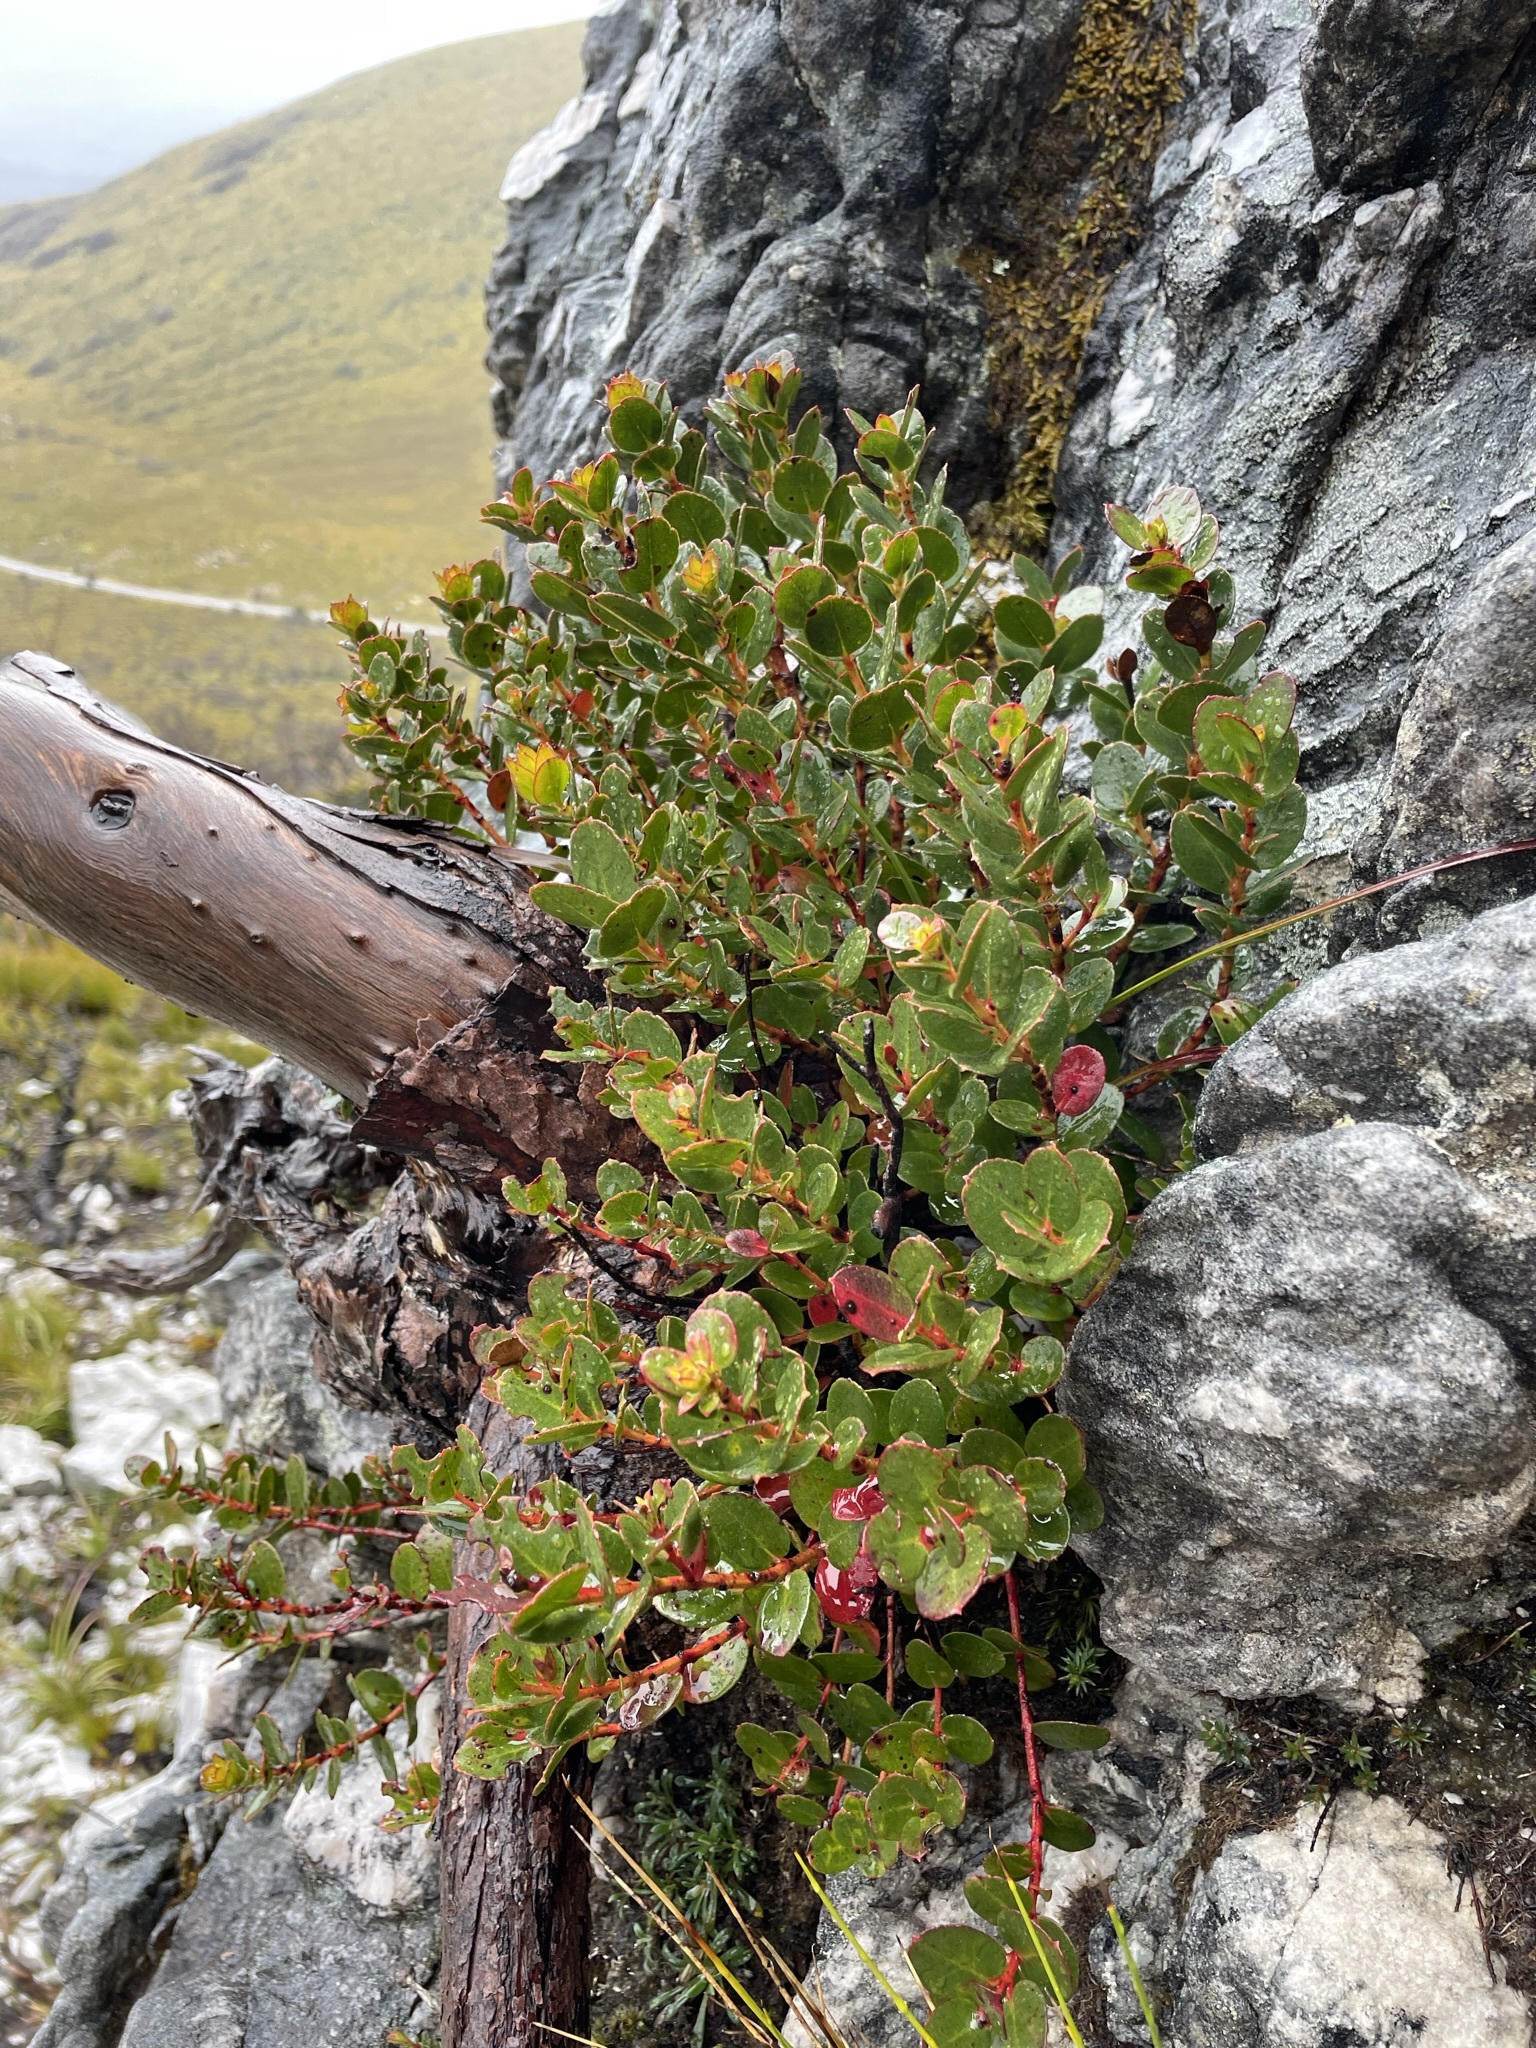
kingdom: Plantae
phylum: Tracheophyta
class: Magnoliopsida
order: Myrtales
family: Myrtaceae
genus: Eucalyptus
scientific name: Eucalyptus vernicosa
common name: Varnished gum
